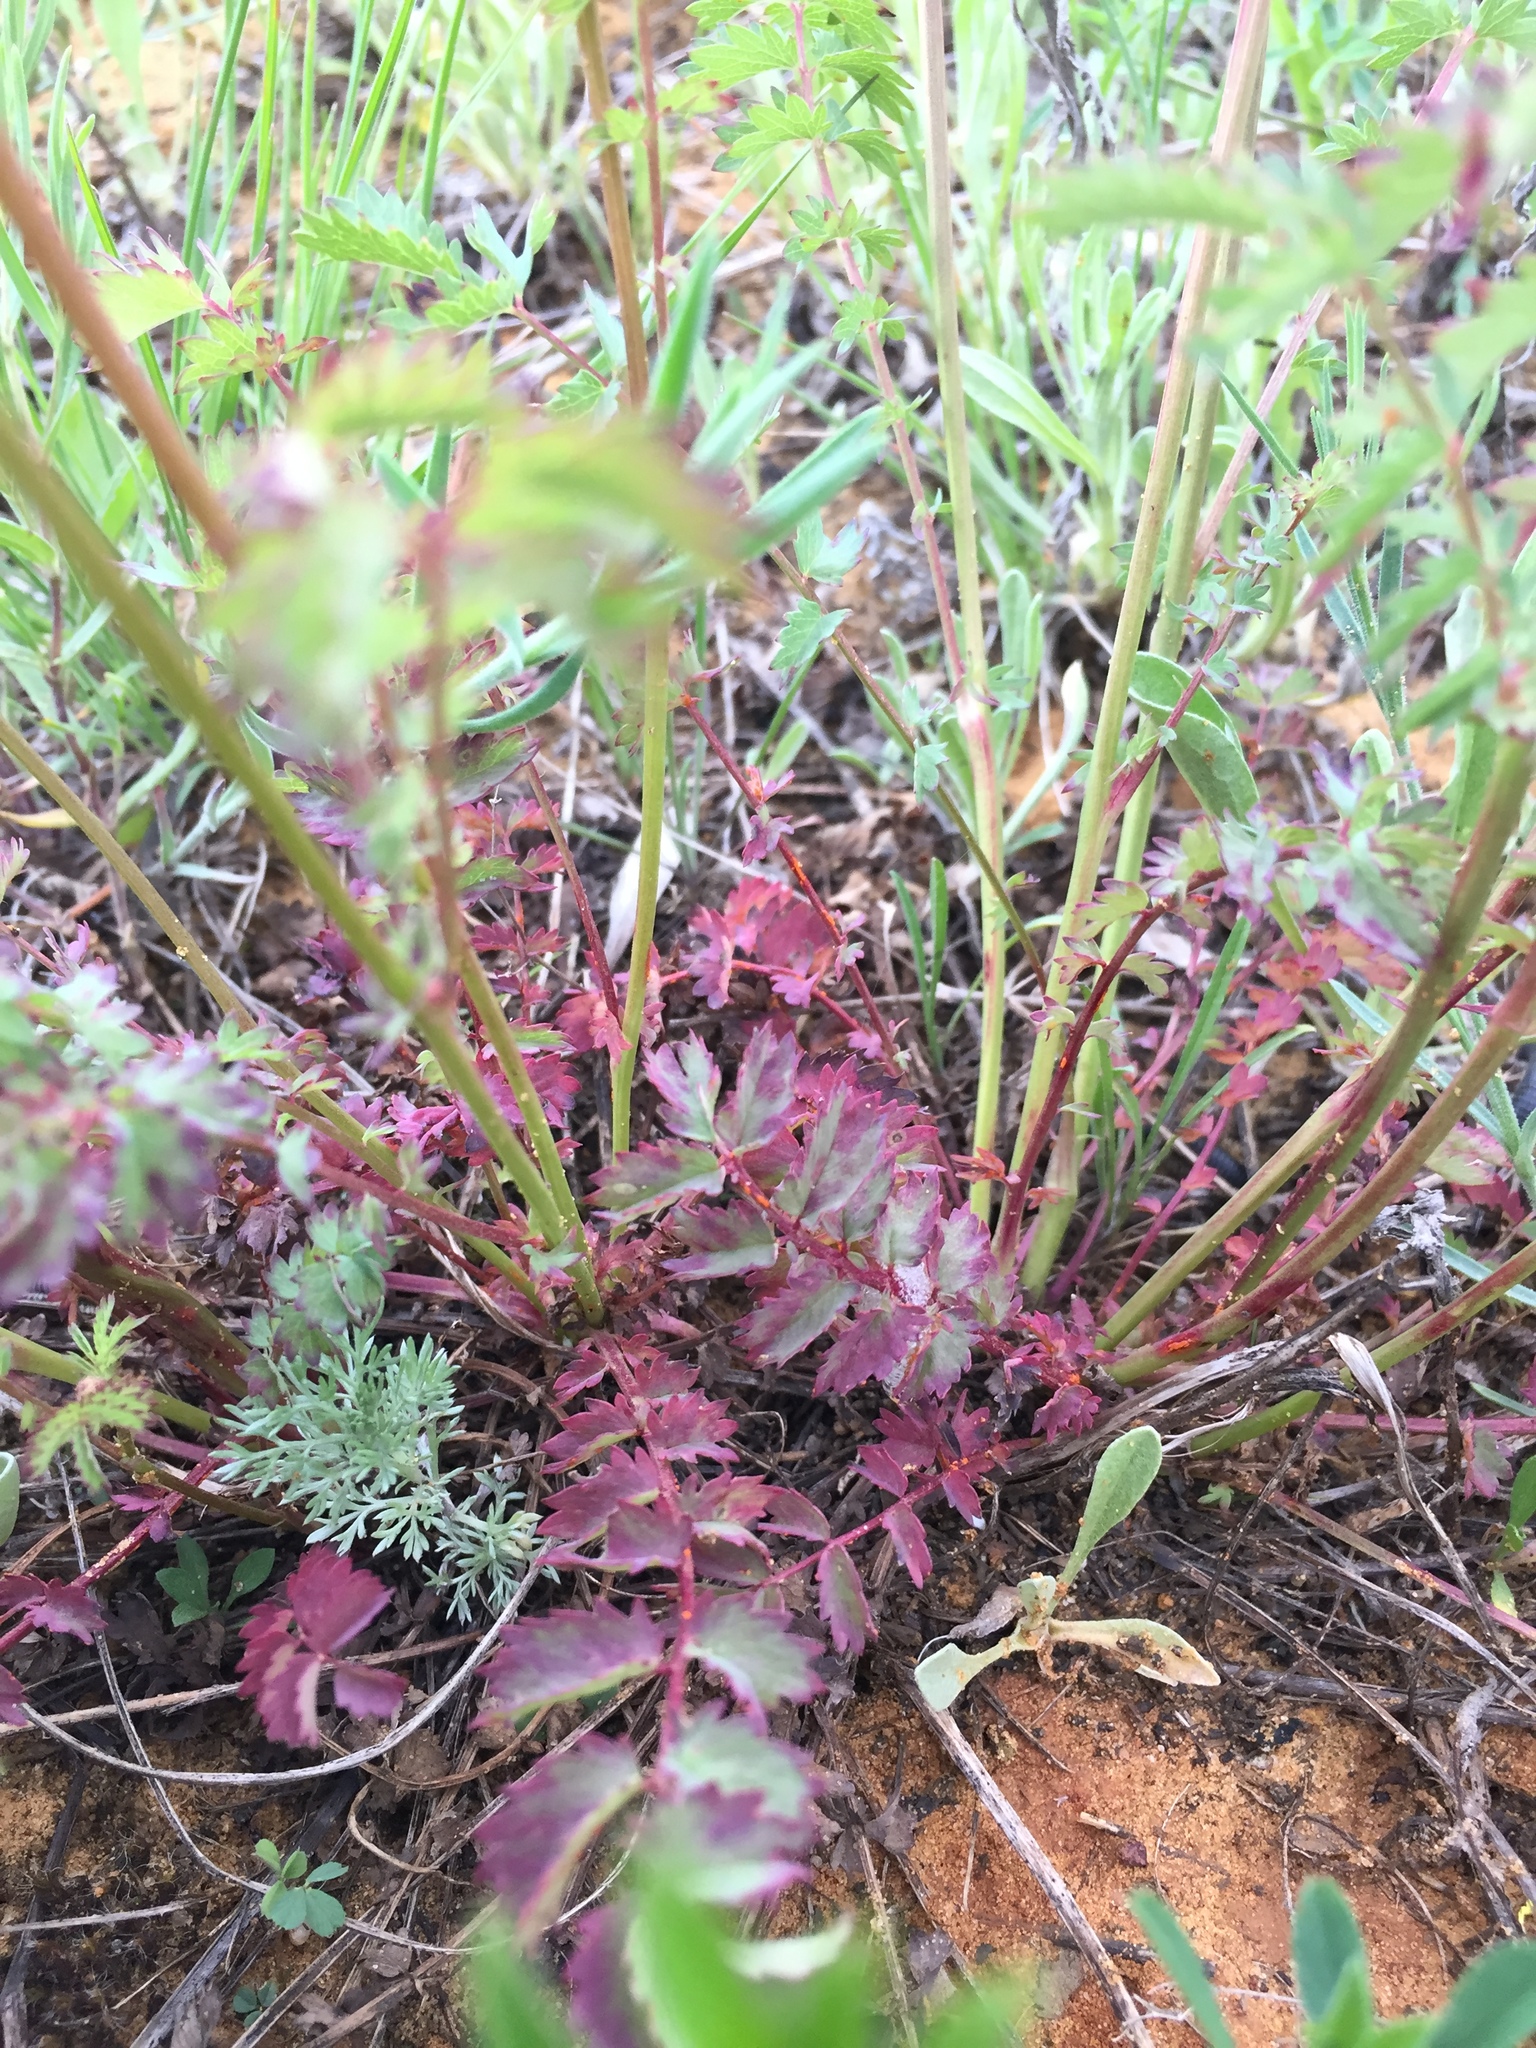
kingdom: Plantae
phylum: Tracheophyta
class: Magnoliopsida
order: Rosales
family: Rosaceae
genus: Poterium
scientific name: Poterium sanguisorba
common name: Salad burnet
